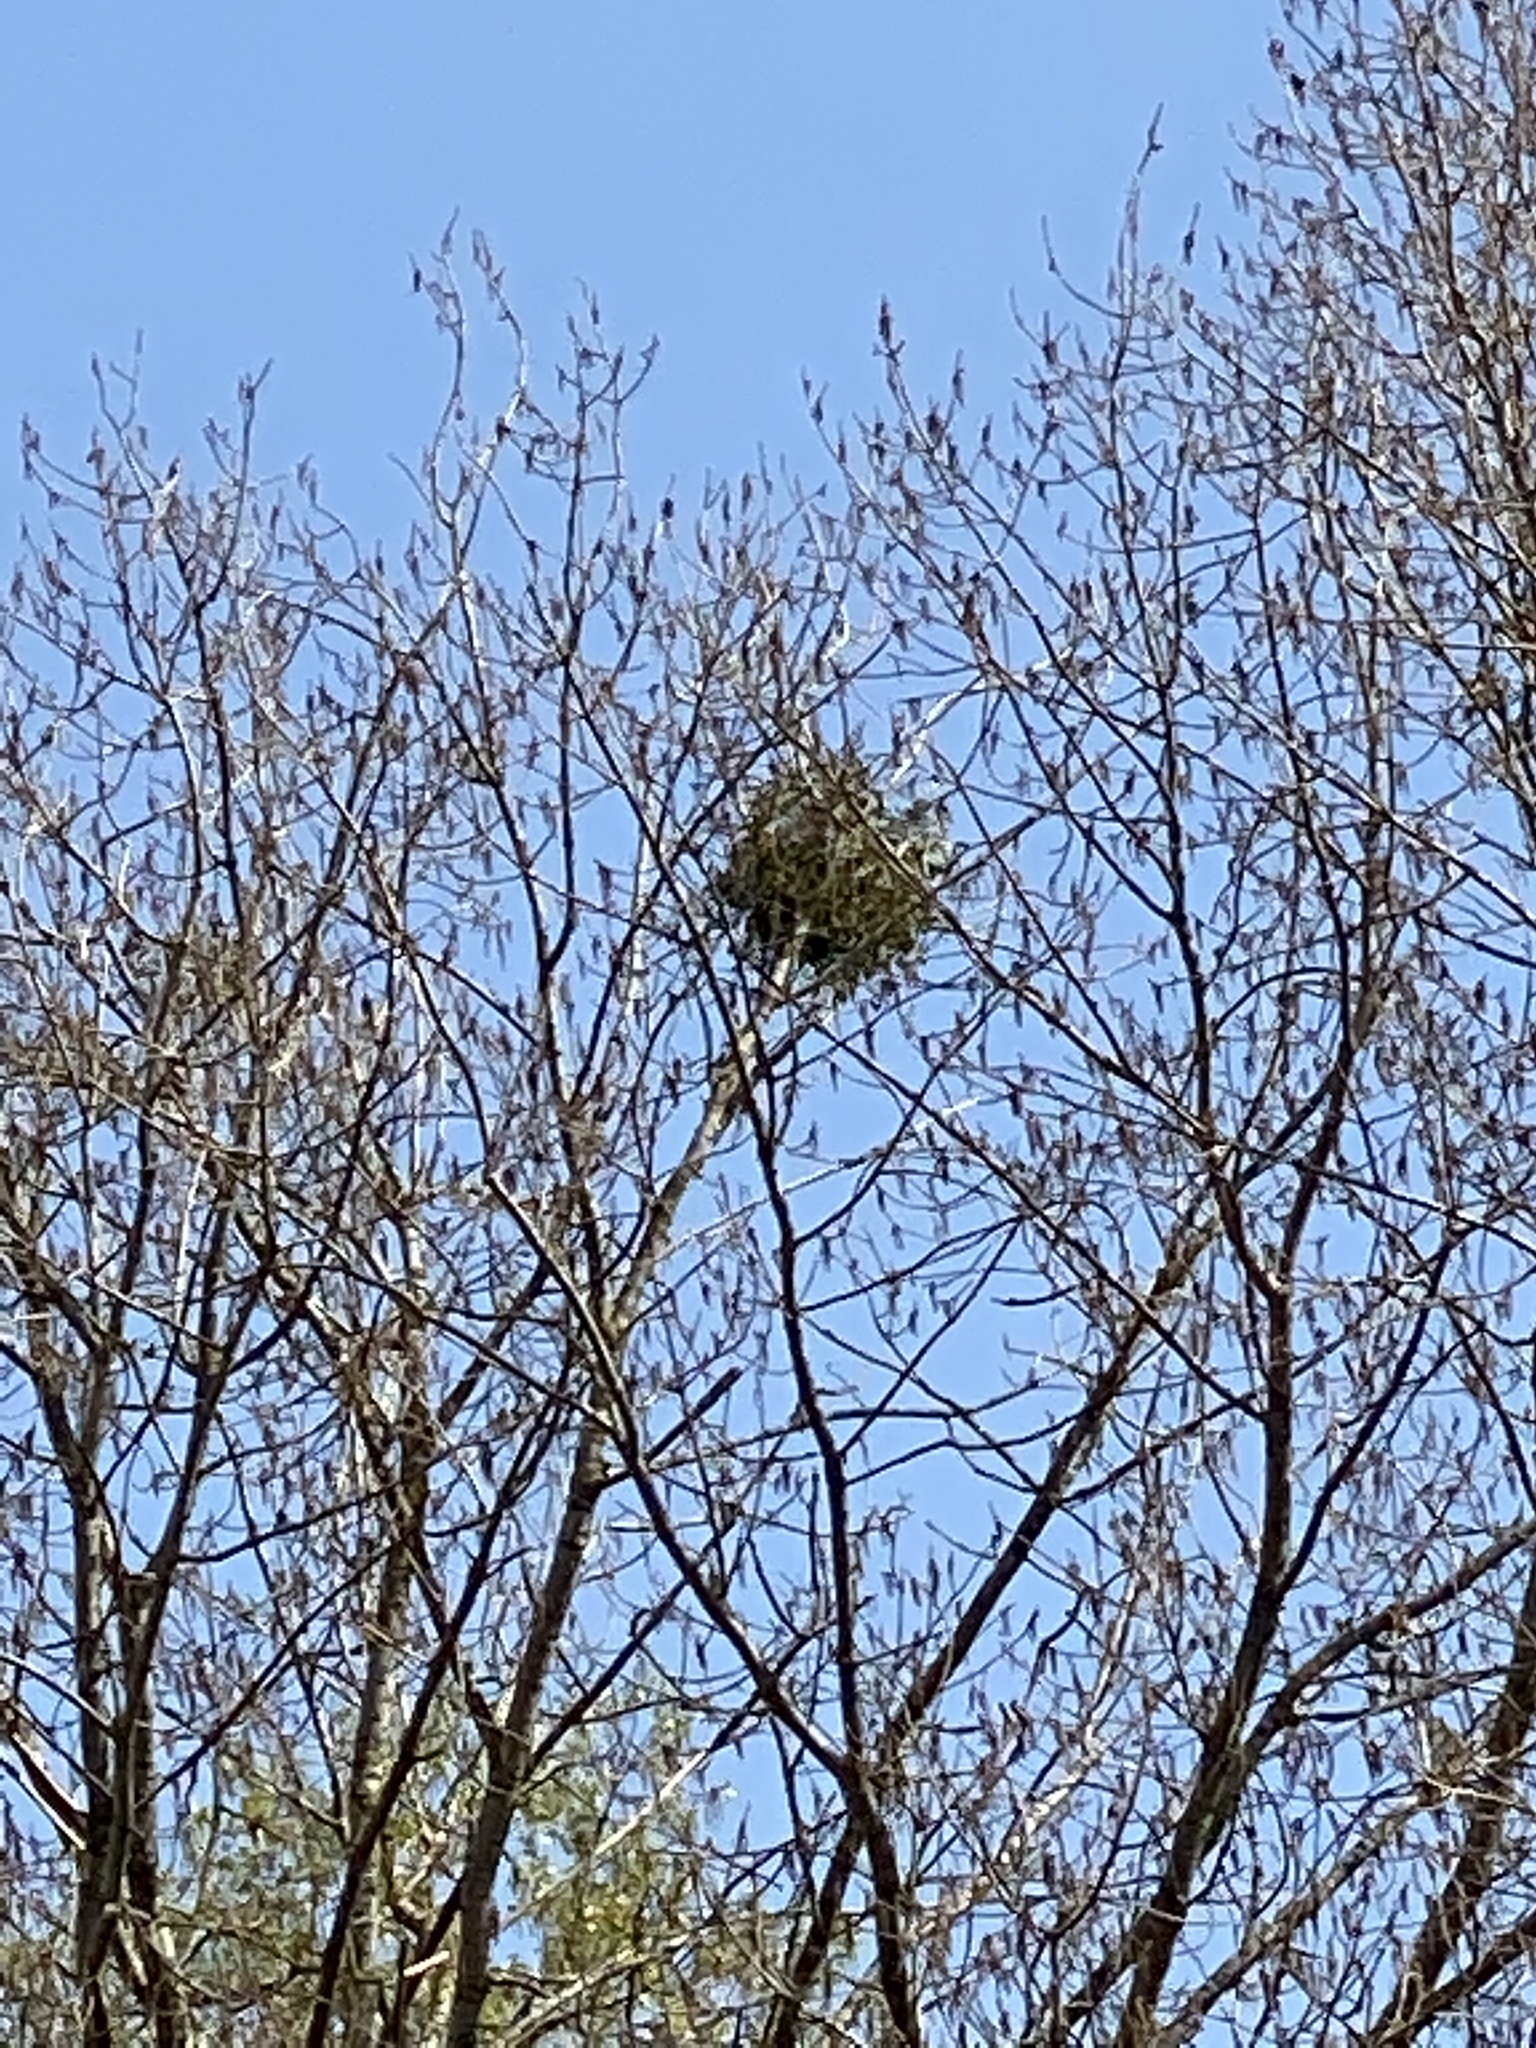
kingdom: Plantae
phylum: Tracheophyta
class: Magnoliopsida
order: Santalales
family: Viscaceae
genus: Viscum
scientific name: Viscum album
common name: Mistletoe
